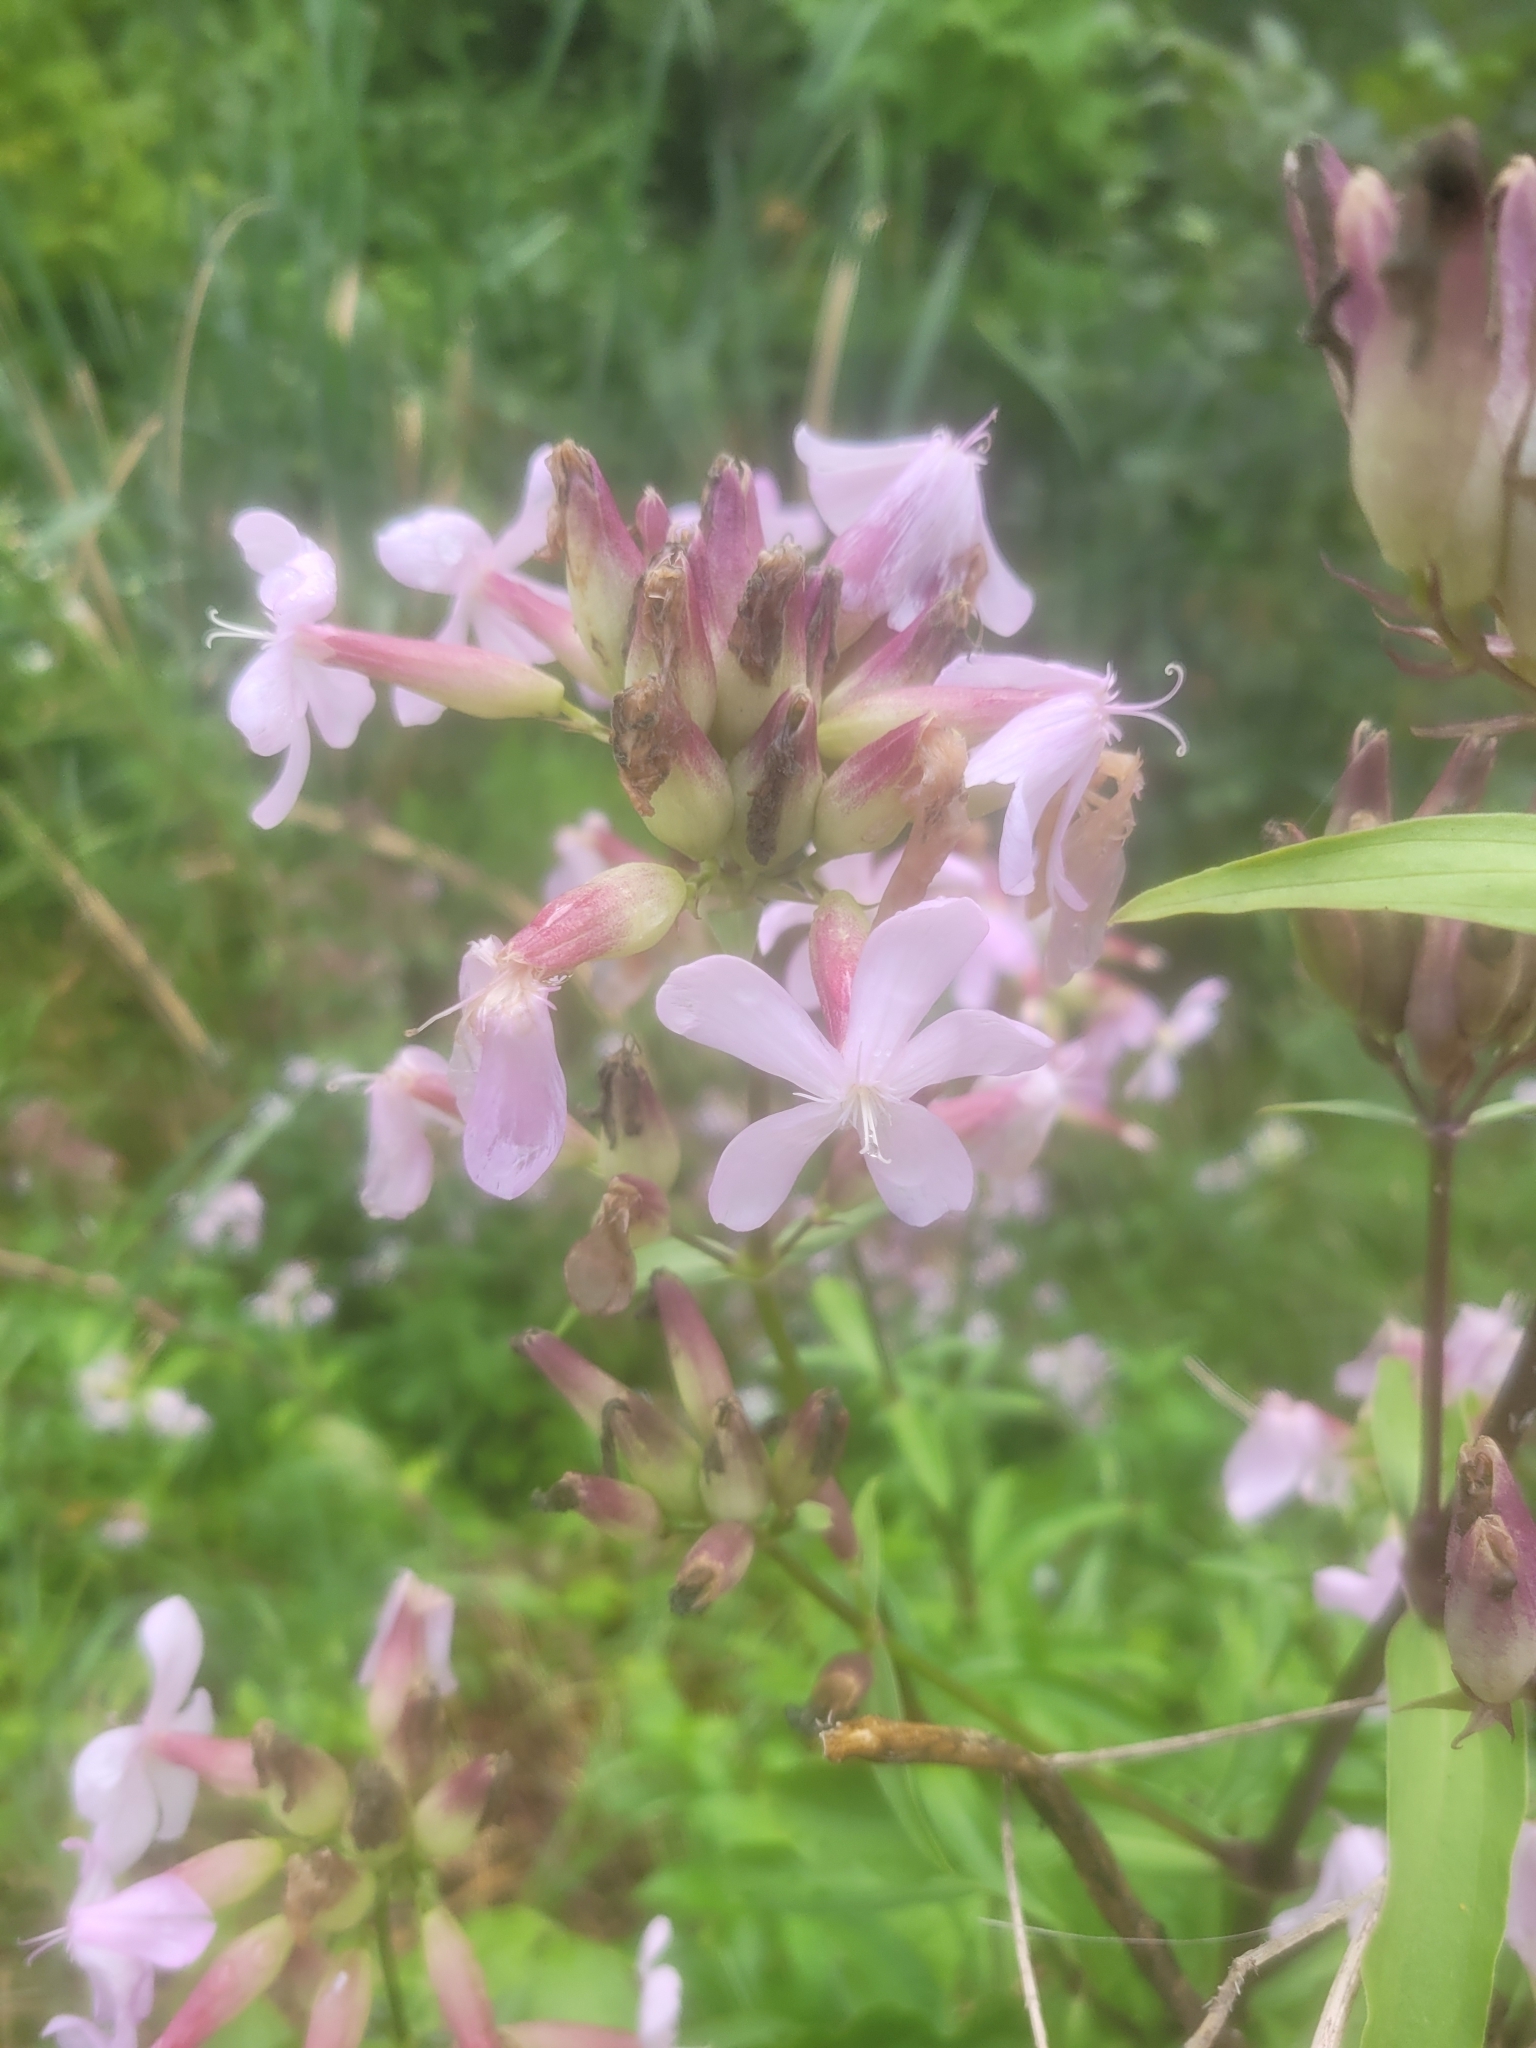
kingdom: Plantae
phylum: Tracheophyta
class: Magnoliopsida
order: Caryophyllales
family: Caryophyllaceae
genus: Saponaria
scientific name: Saponaria officinalis
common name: Soapwort
